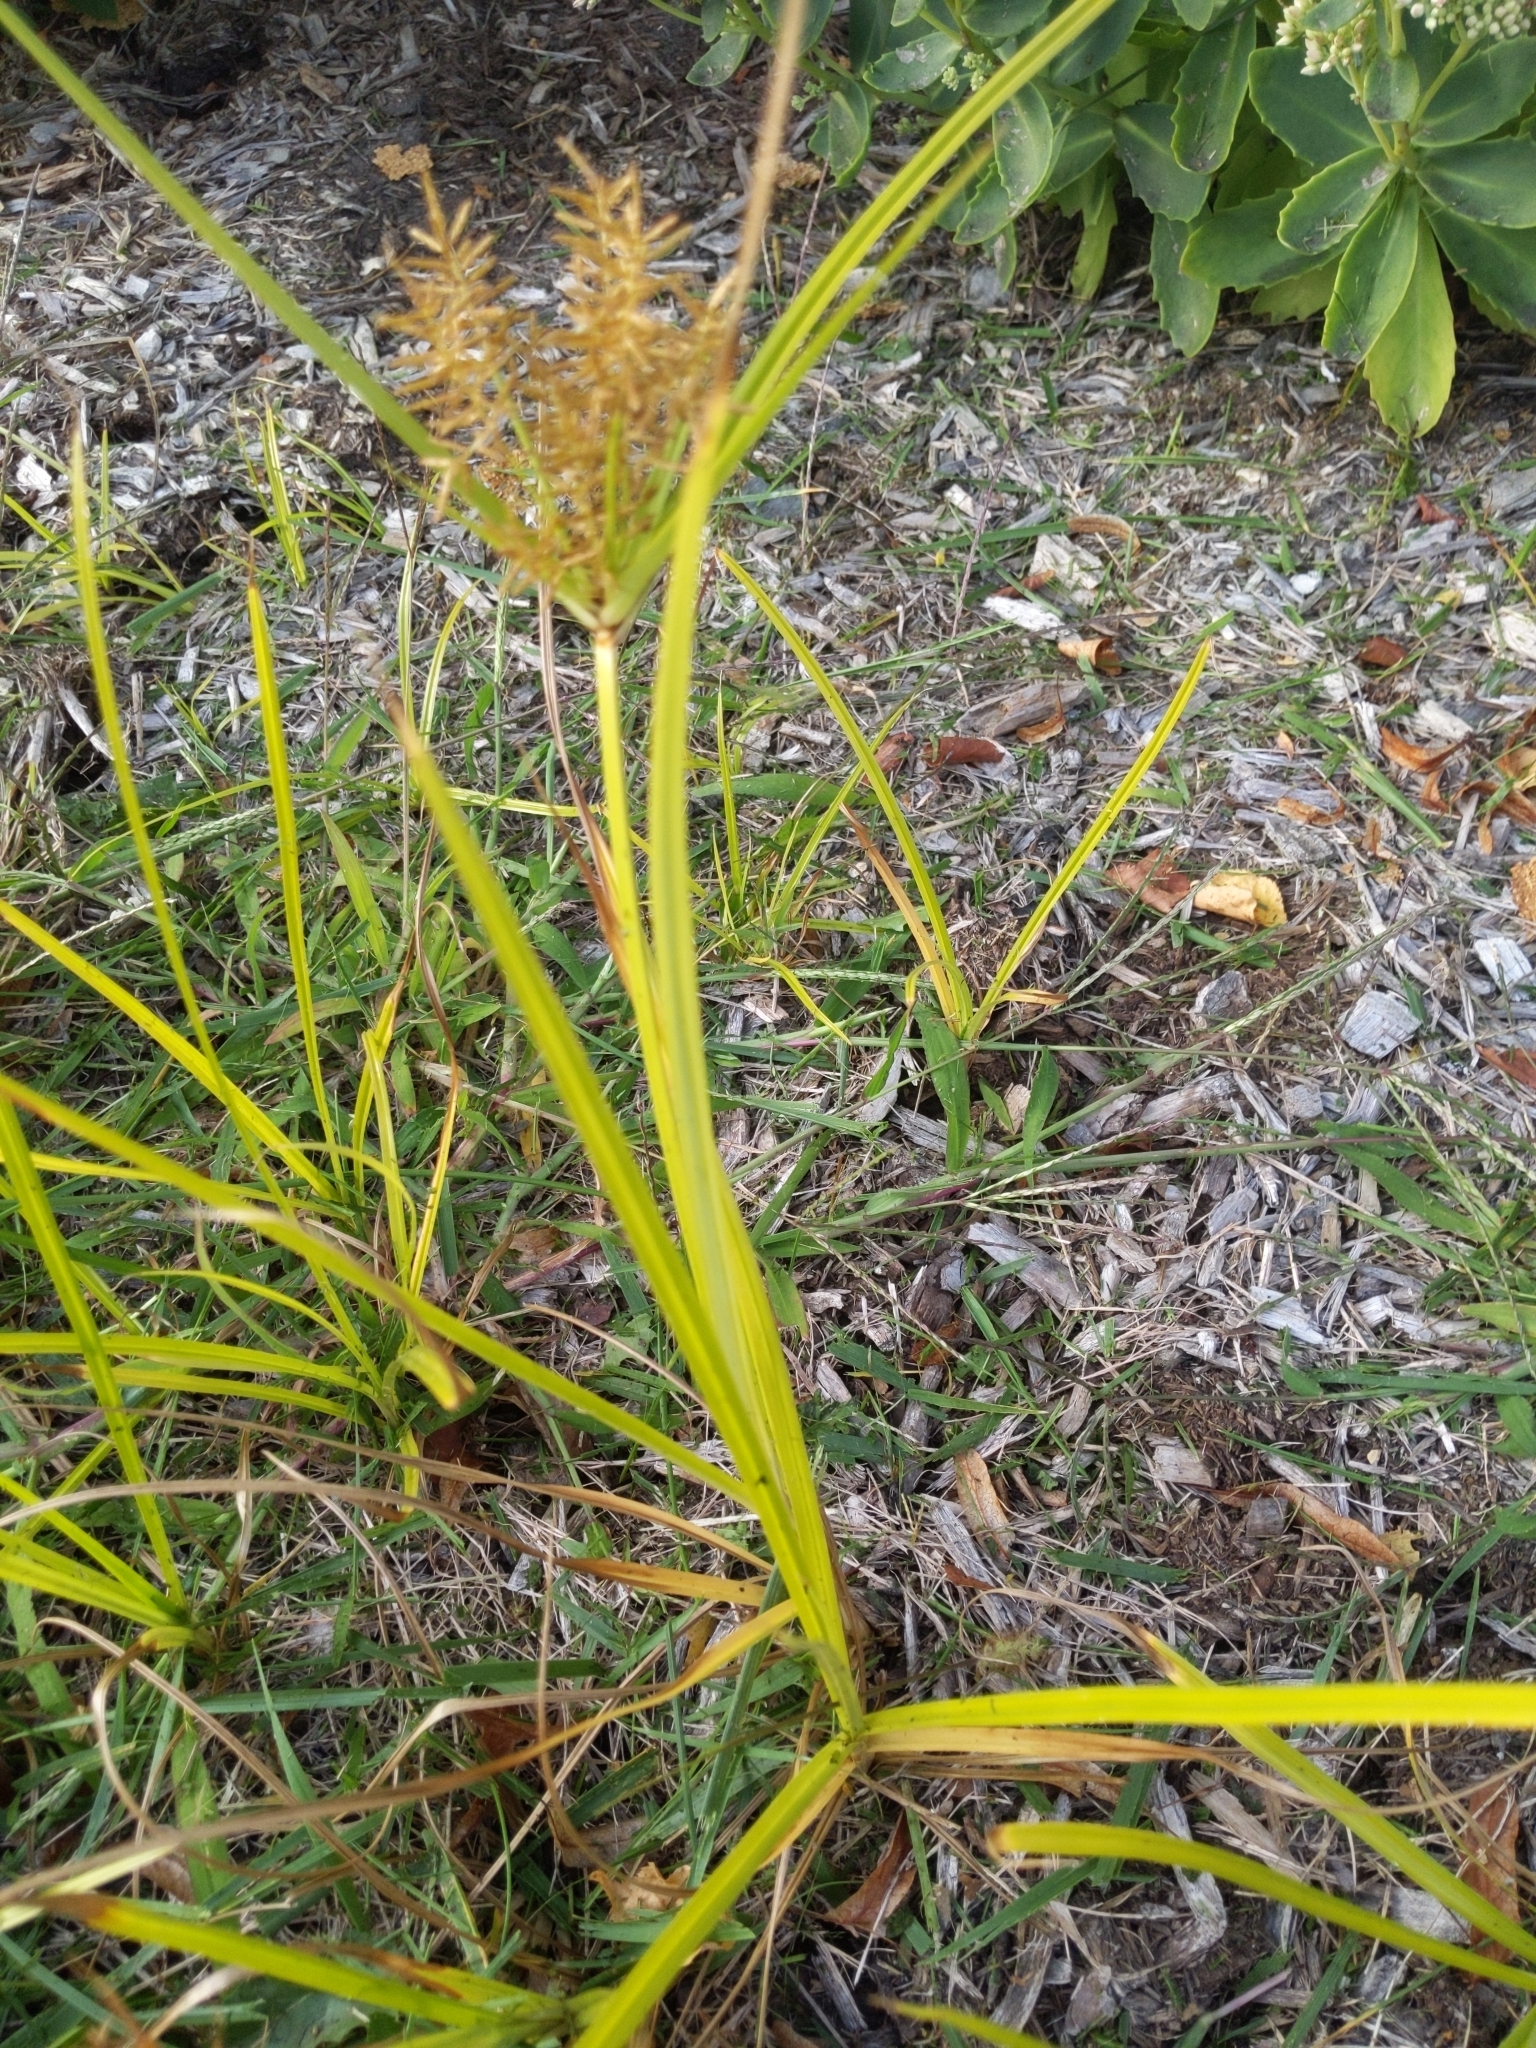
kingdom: Plantae
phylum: Tracheophyta
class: Liliopsida
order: Poales
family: Cyperaceae
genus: Cyperus
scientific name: Cyperus esculentus
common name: Yellow nutsedge
